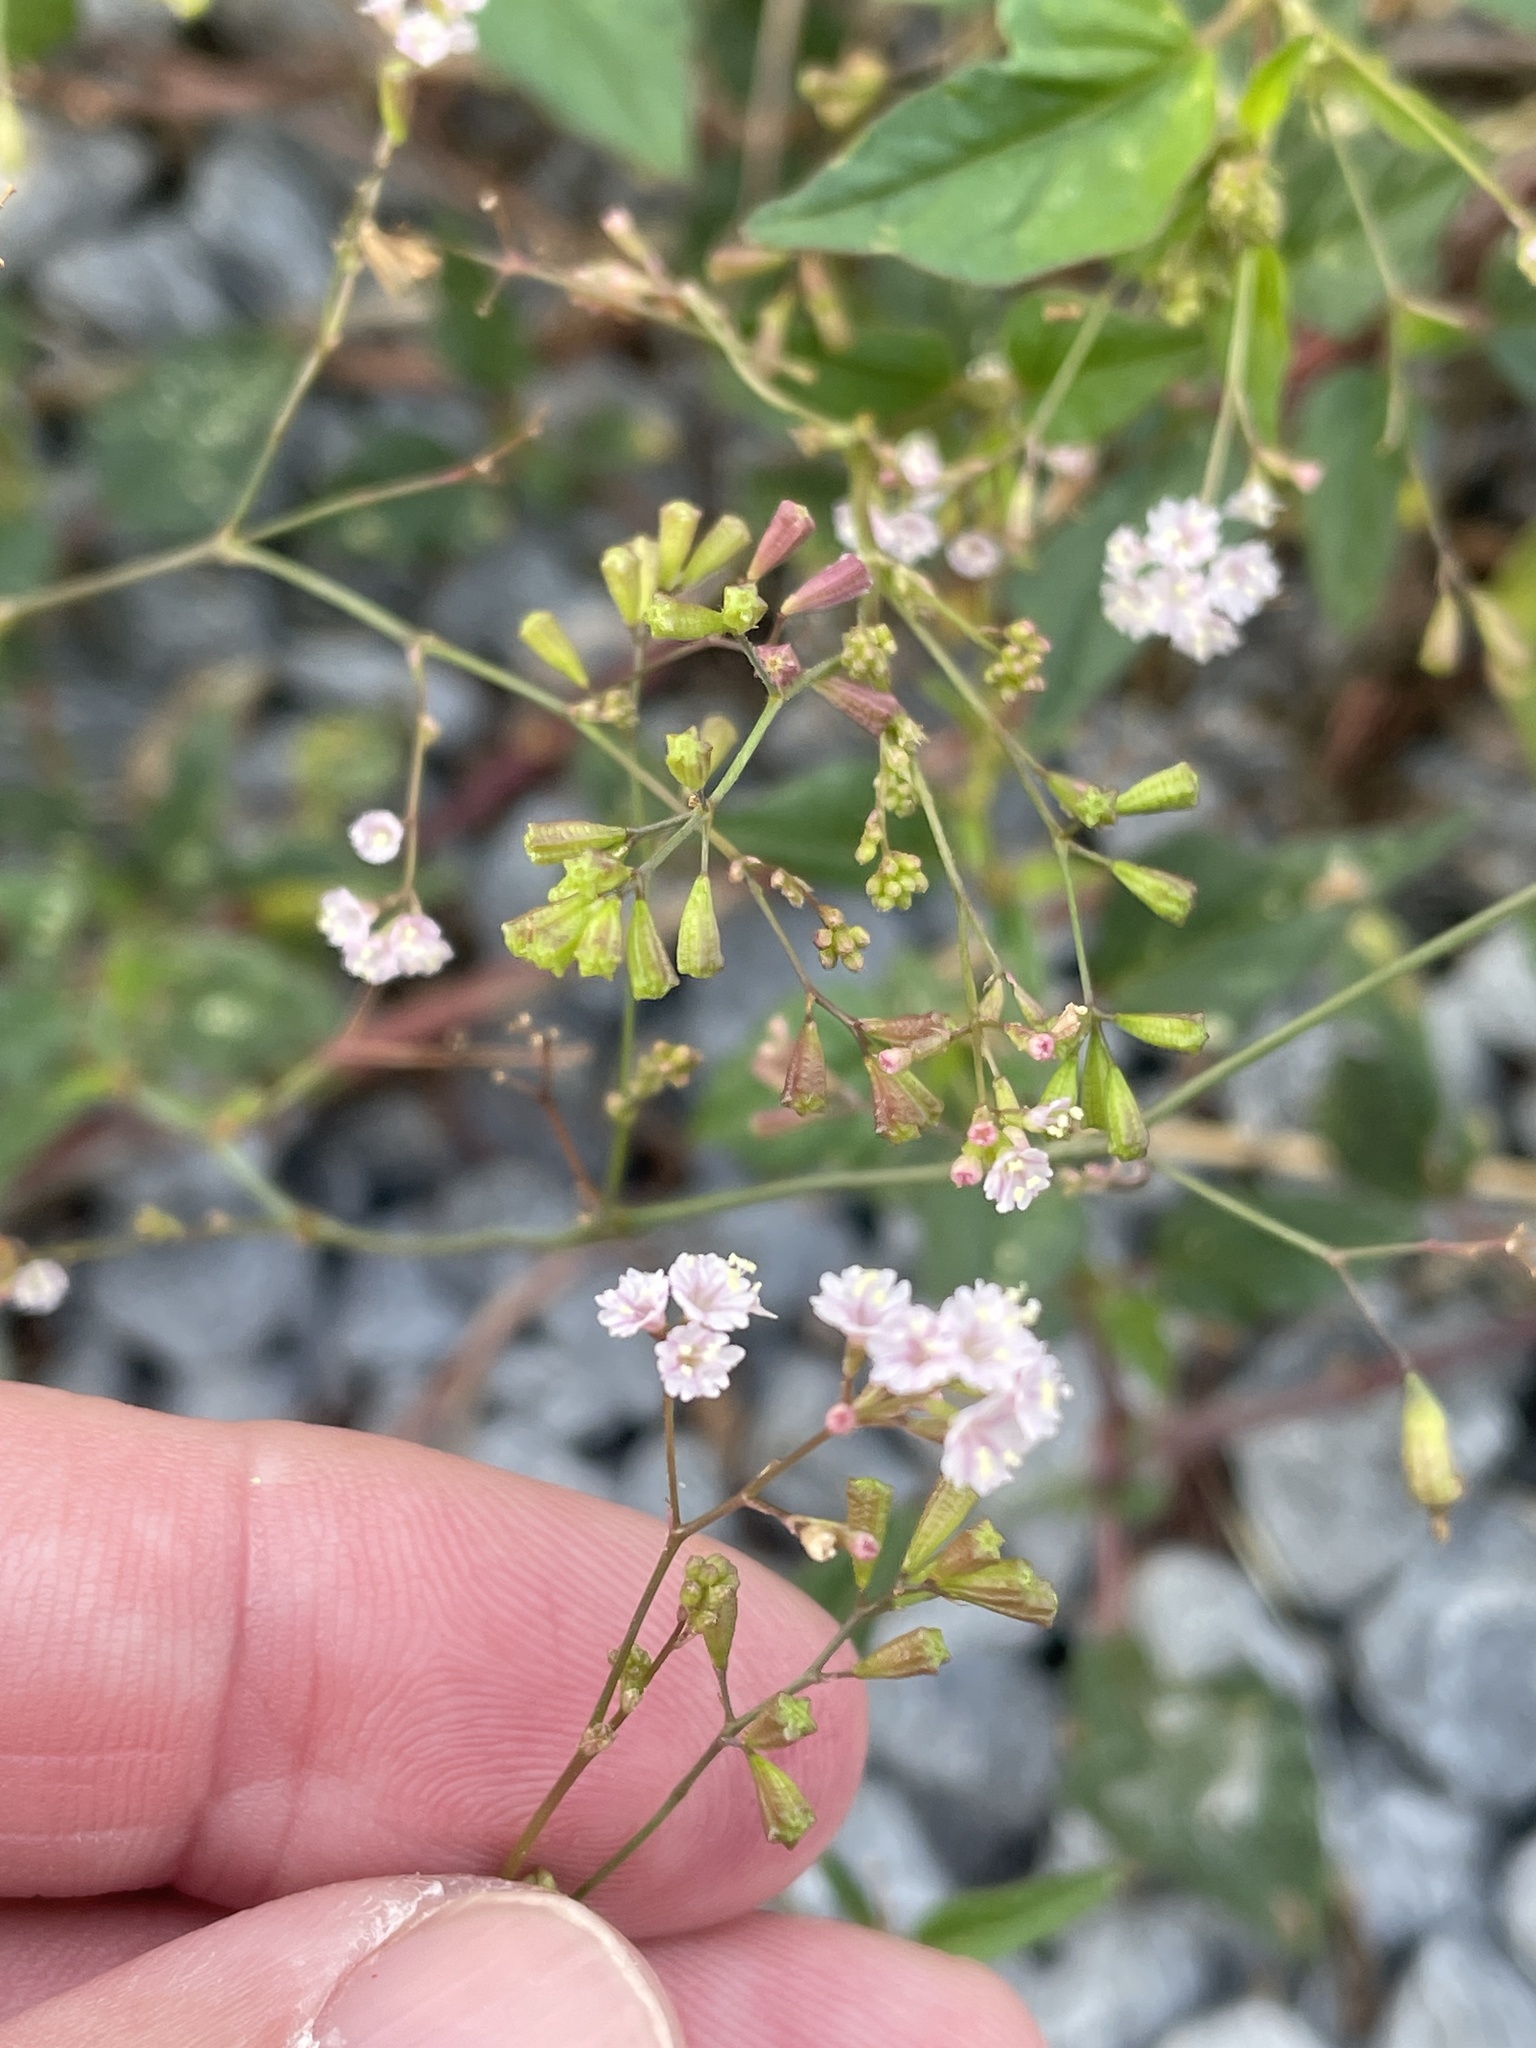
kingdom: Plantae
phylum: Tracheophyta
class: Magnoliopsida
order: Caryophyllales
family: Nyctaginaceae
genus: Boerhavia
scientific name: Boerhavia erecta
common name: Erect spiderling
